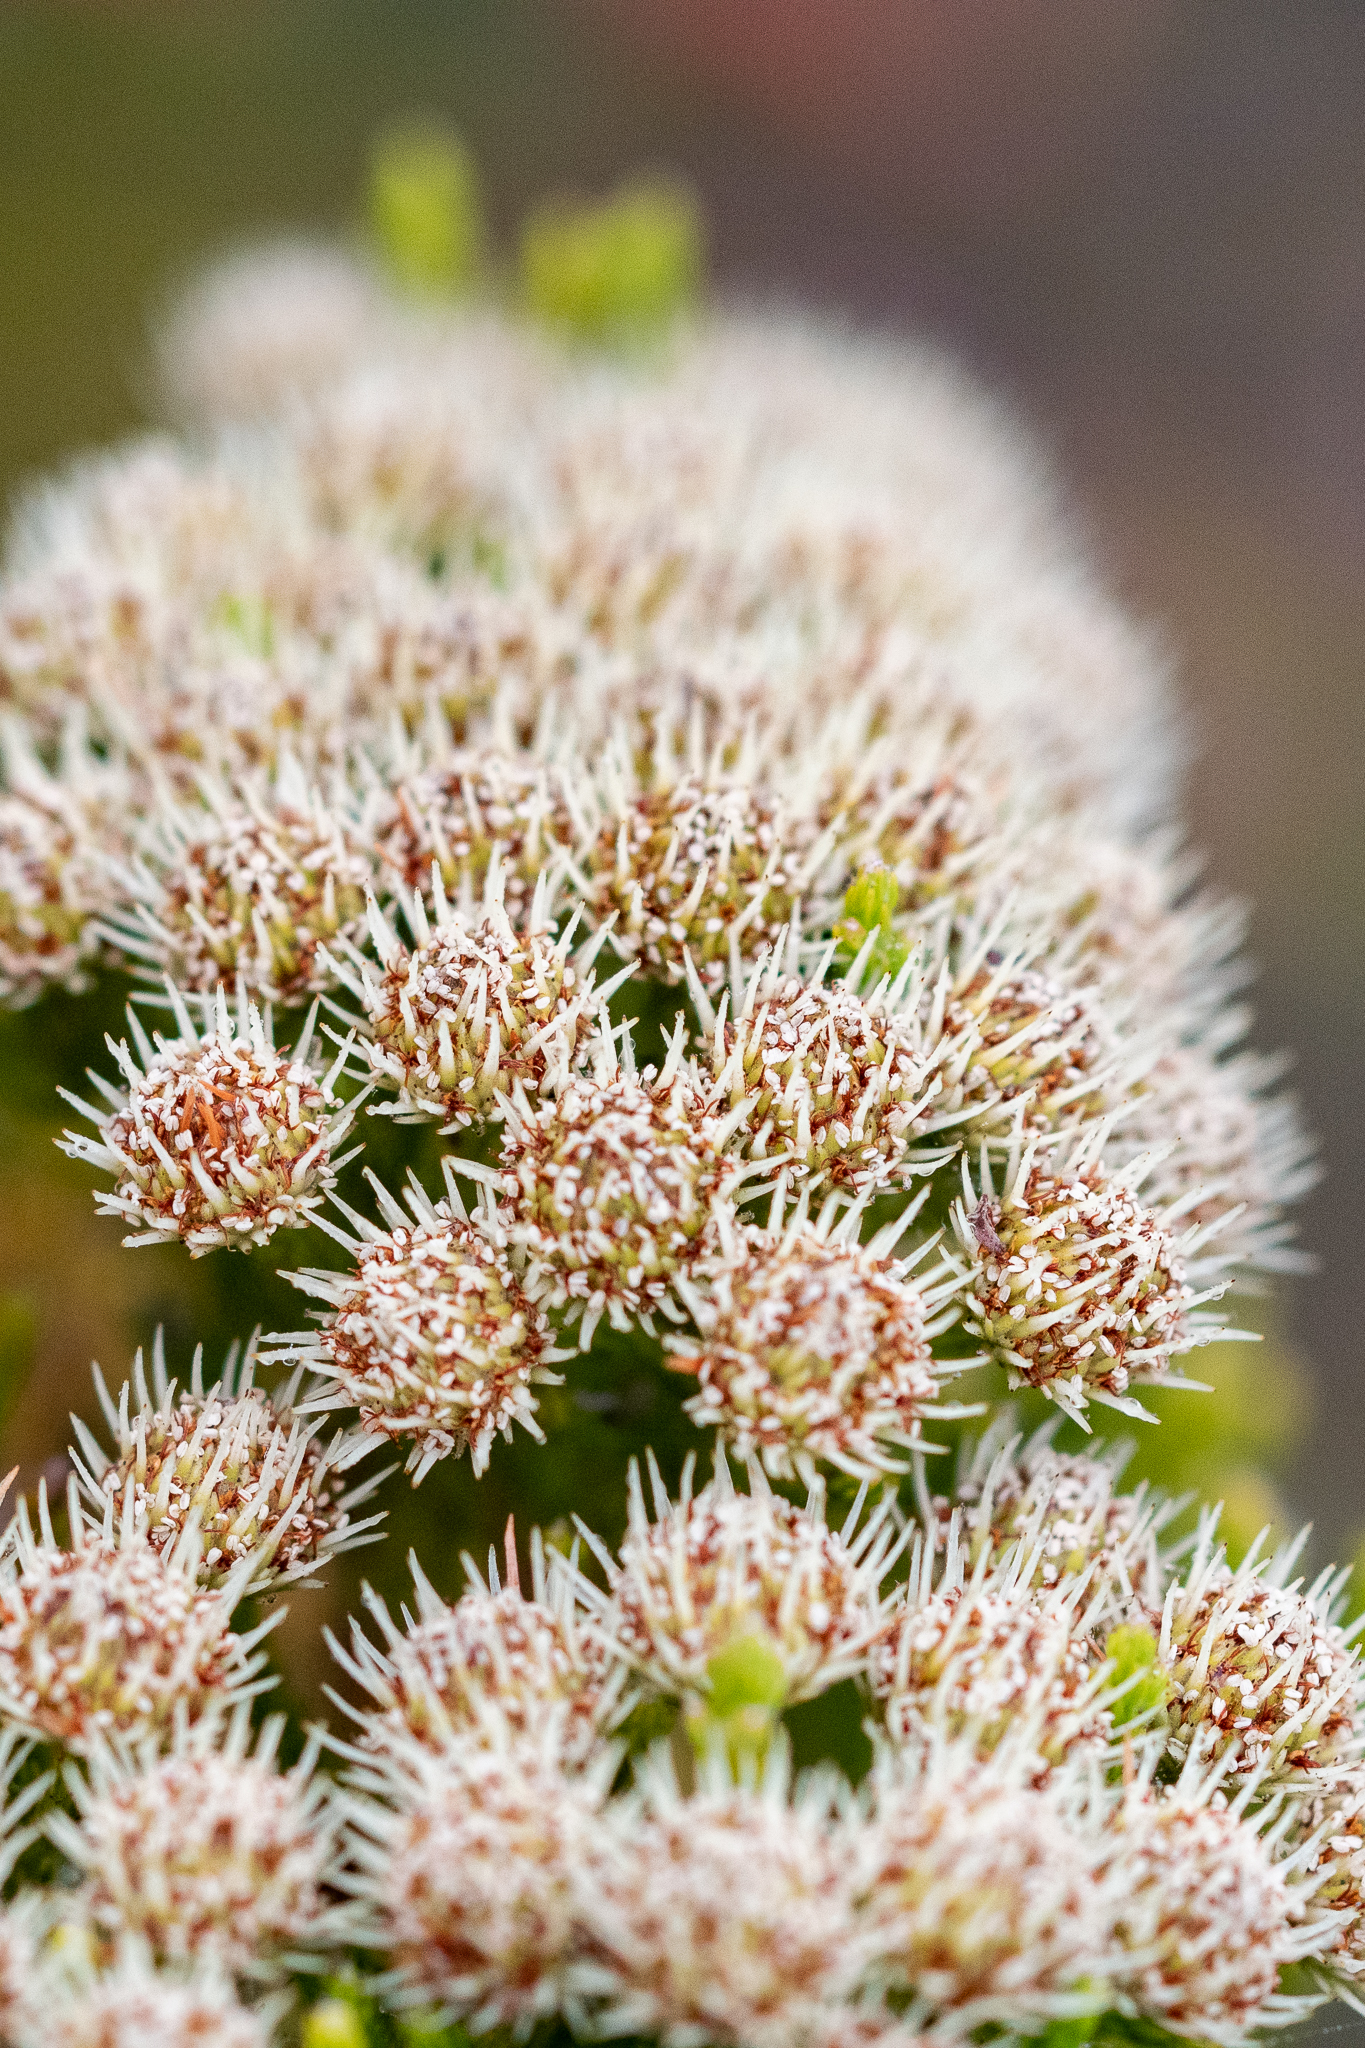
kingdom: Plantae
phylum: Tracheophyta
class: Magnoliopsida
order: Bruniales
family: Bruniaceae
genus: Brunia
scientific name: Brunia paleacea
